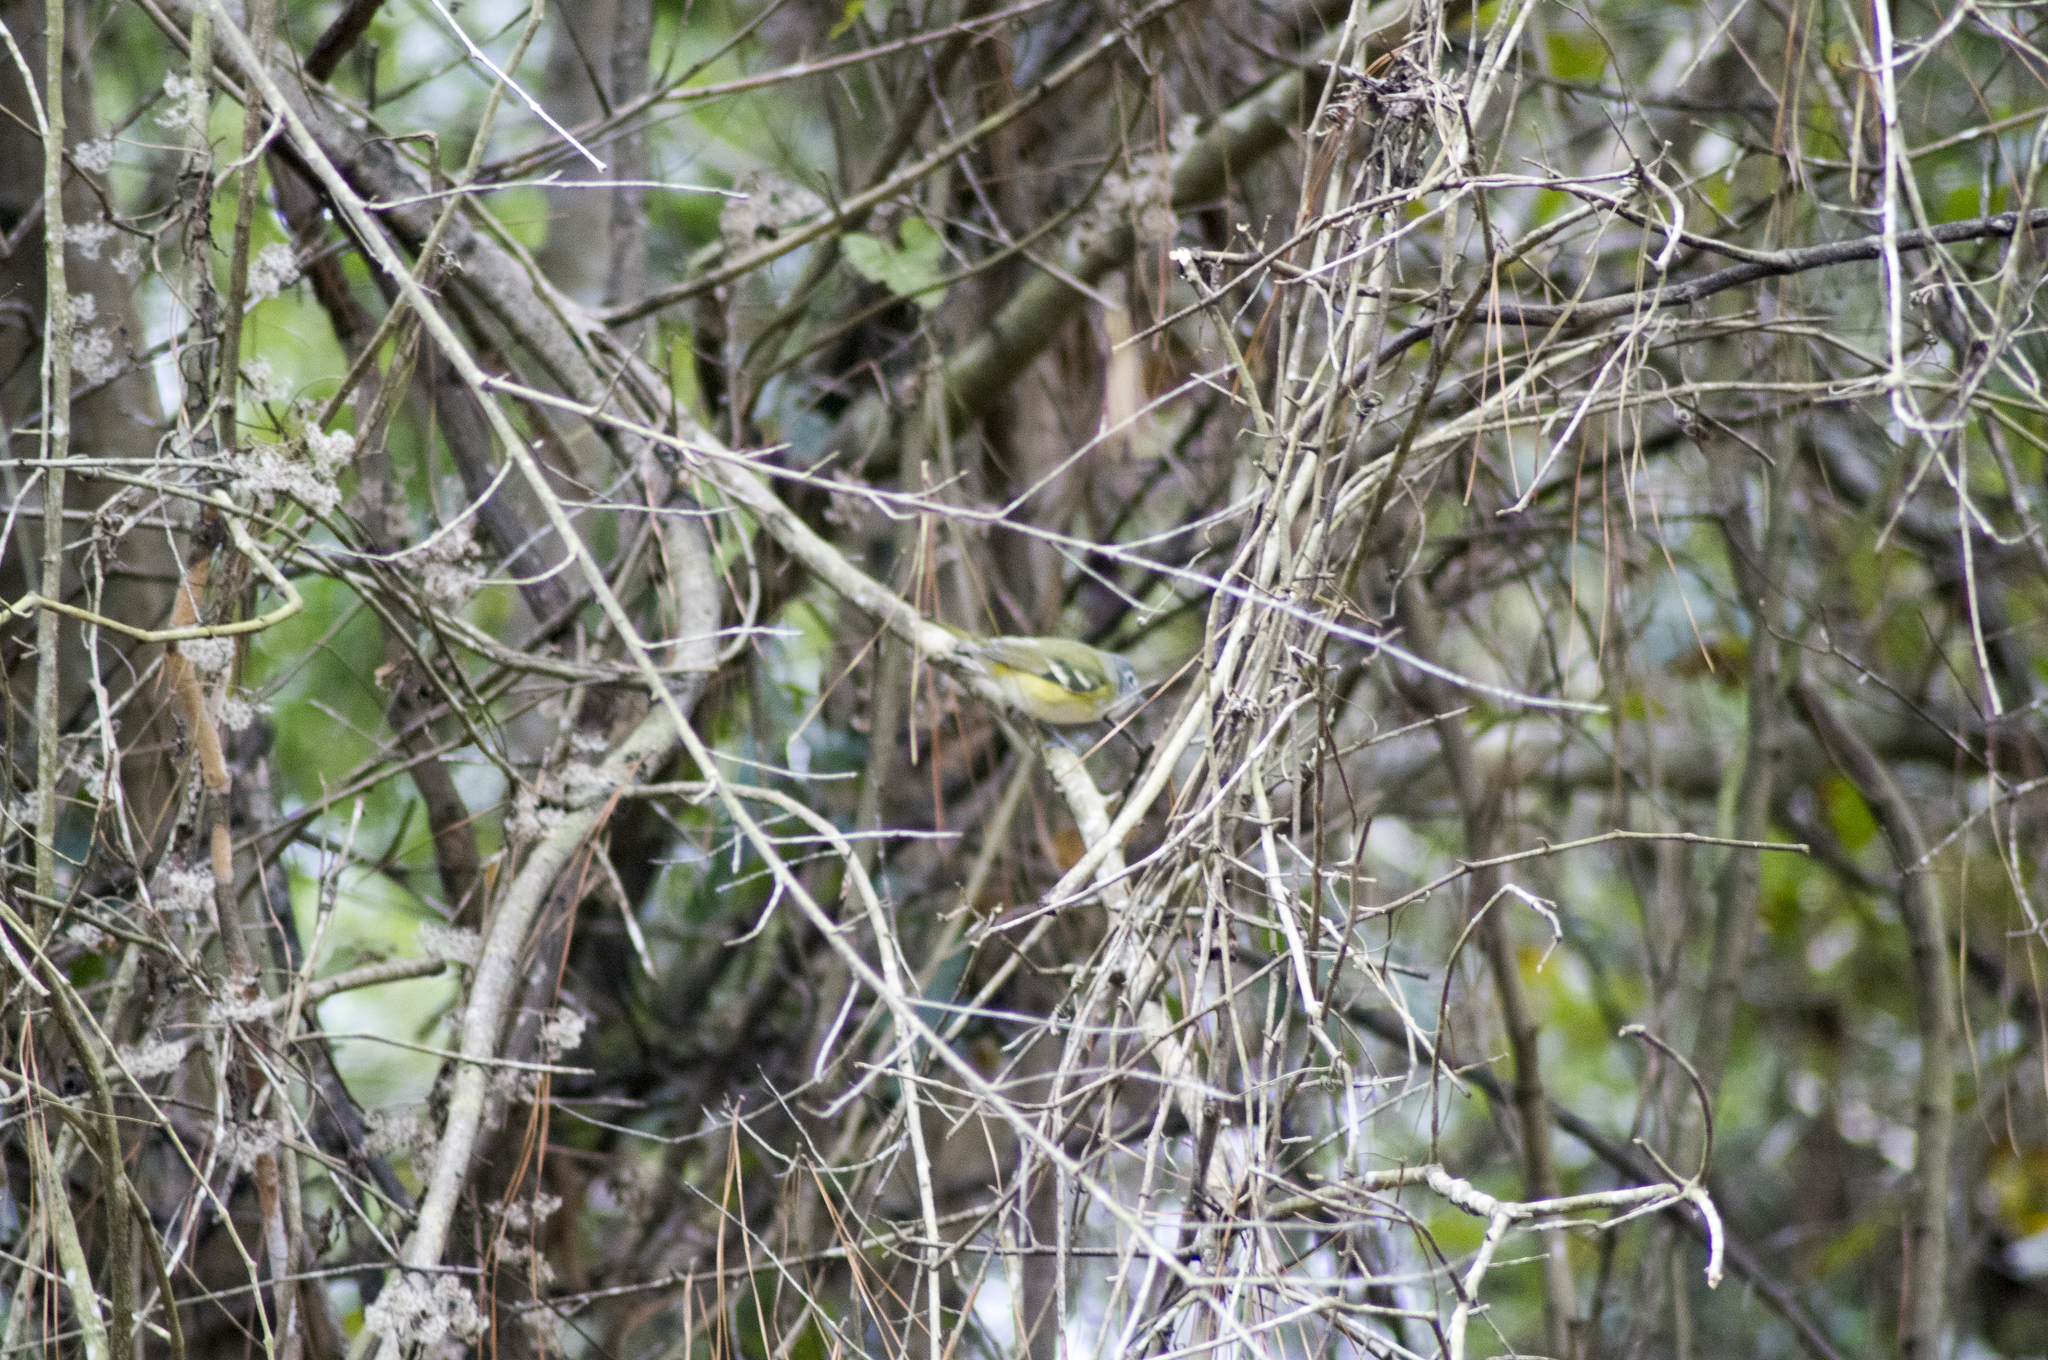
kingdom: Animalia
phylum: Chordata
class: Aves
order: Passeriformes
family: Vireonidae
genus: Vireo
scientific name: Vireo solitarius
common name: Blue-headed vireo
